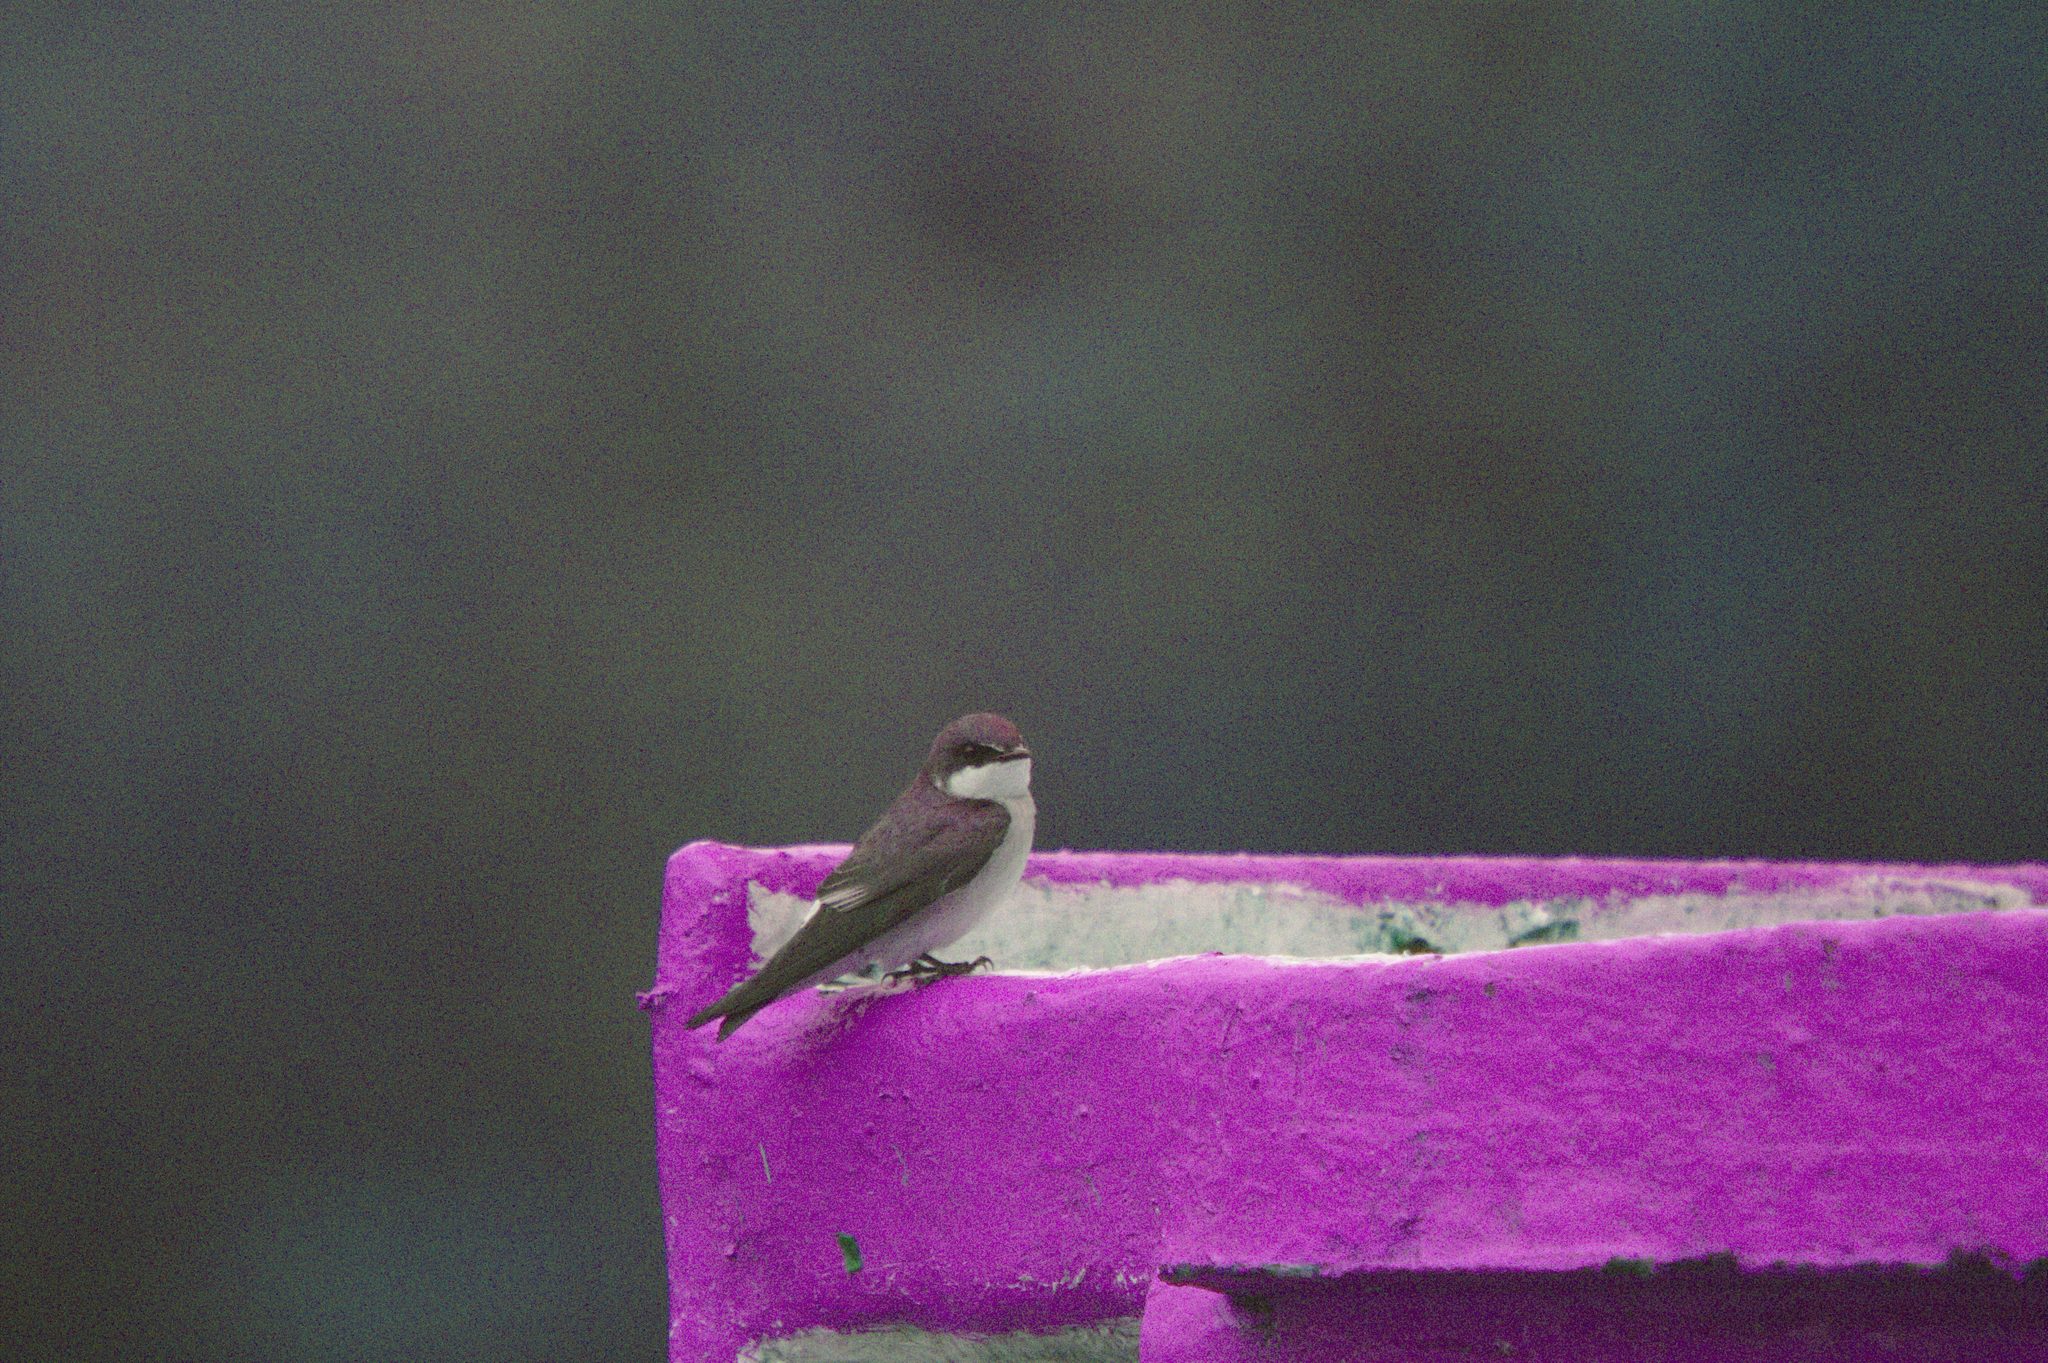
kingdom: Animalia
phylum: Chordata
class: Aves
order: Passeriformes
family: Hirundinidae
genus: Tachycineta
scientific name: Tachycineta albilinea
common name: Mangrove swallow
